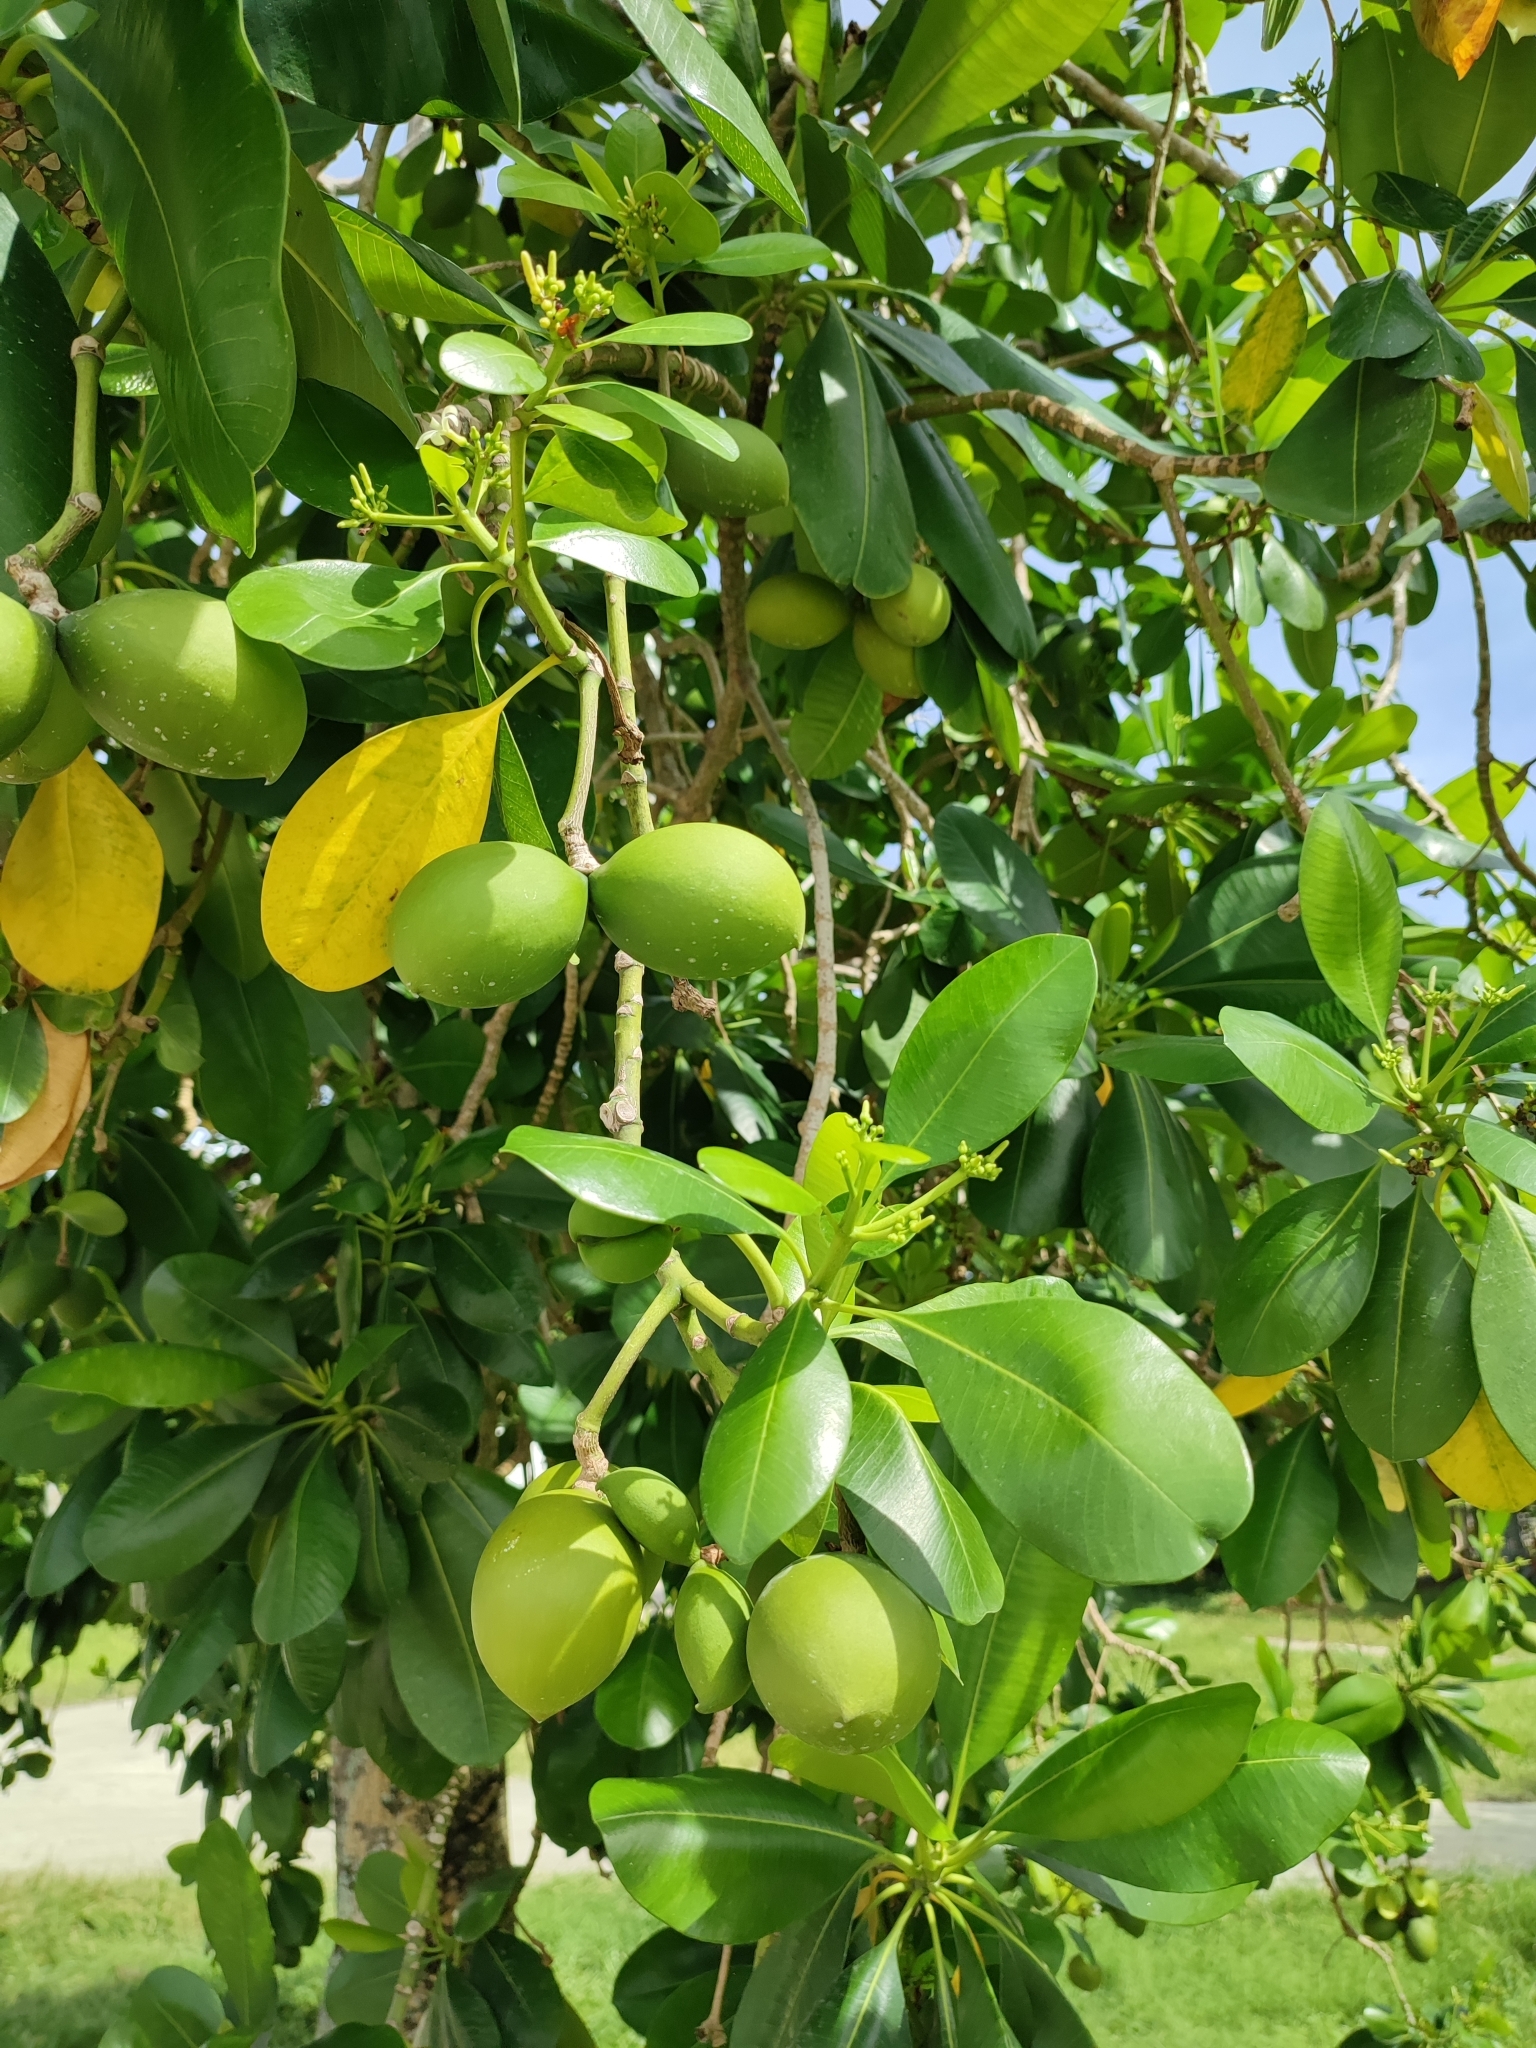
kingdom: Plantae
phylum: Tracheophyta
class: Magnoliopsida
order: Gentianales
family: Apocynaceae
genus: Ochrosia
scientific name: Ochrosia oppositifolia
